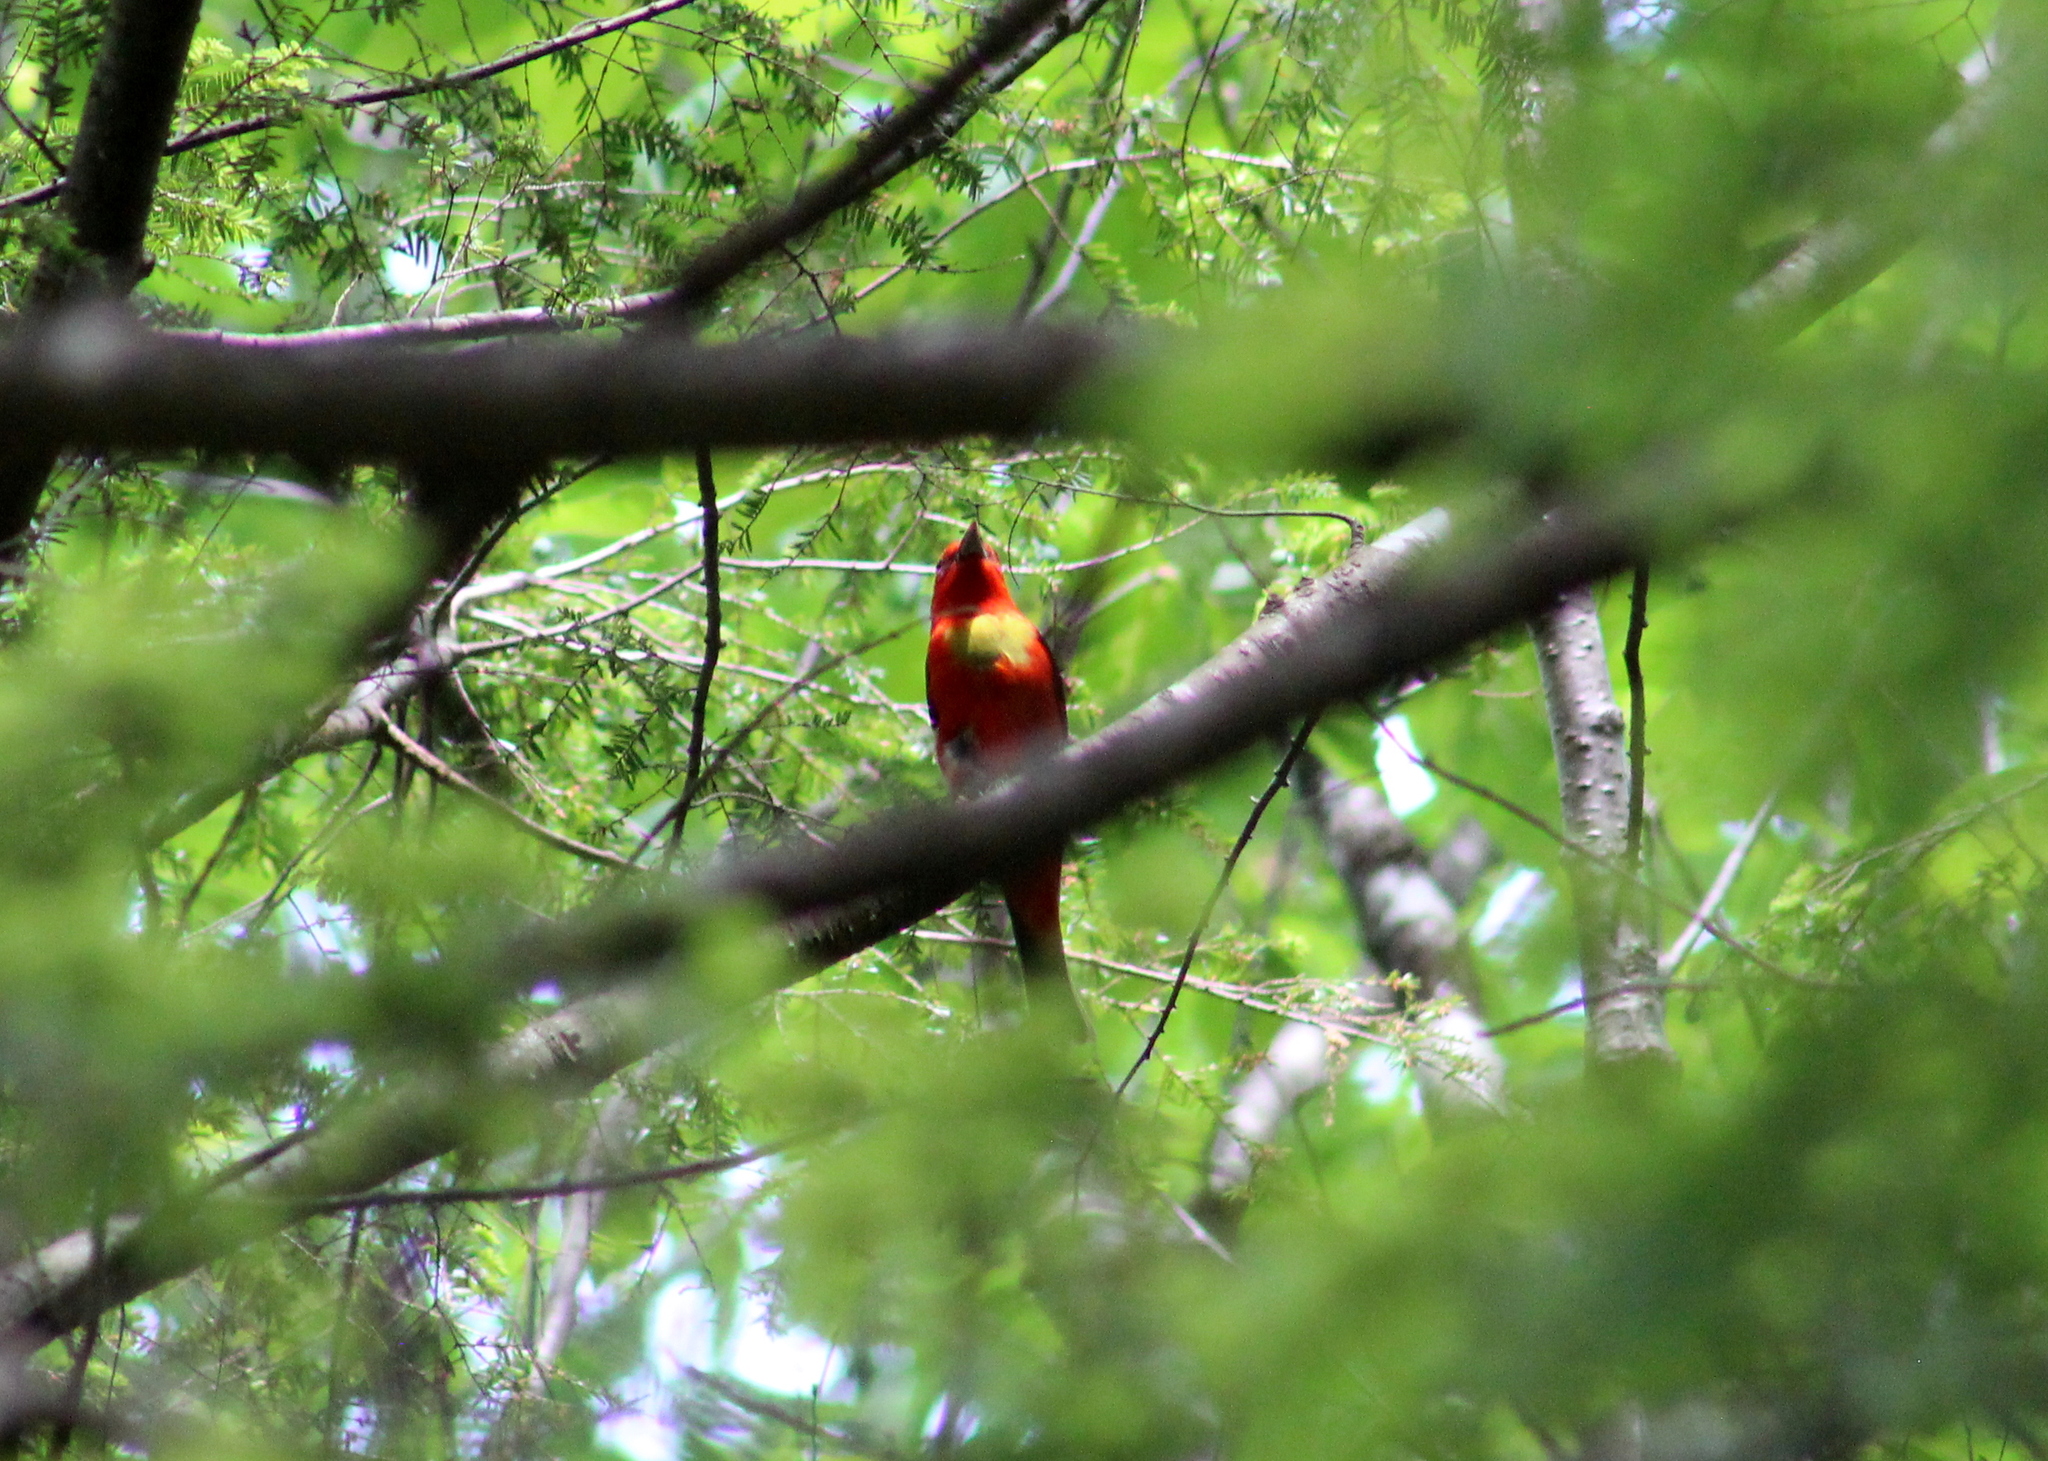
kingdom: Animalia
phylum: Chordata
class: Aves
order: Passeriformes
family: Cardinalidae
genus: Piranga
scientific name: Piranga olivacea
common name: Scarlet tanager
